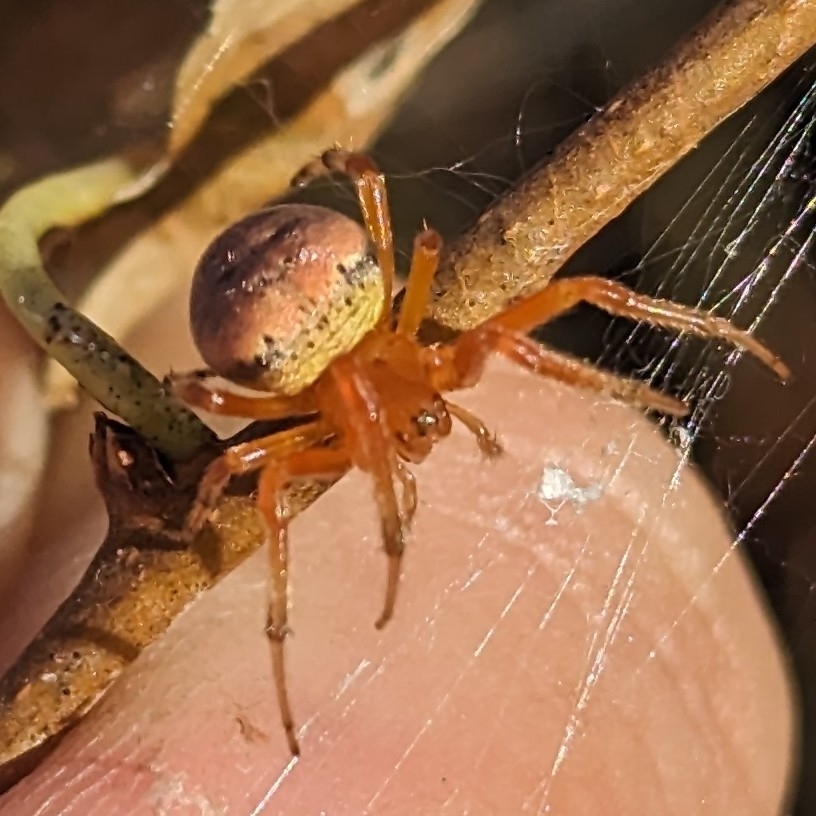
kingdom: Animalia
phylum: Arthropoda
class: Arachnida
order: Araneae
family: Araneidae
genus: Araneus
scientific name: Araneus thaddeus
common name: Lattice orbweaver
